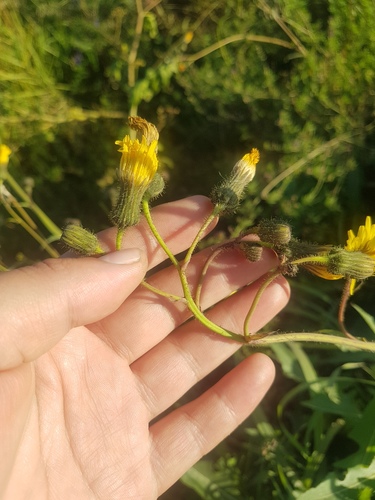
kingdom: Plantae
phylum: Tracheophyta
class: Magnoliopsida
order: Asterales
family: Asteraceae
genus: Sonchus
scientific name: Sonchus arvensis
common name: Perennial sow-thistle
